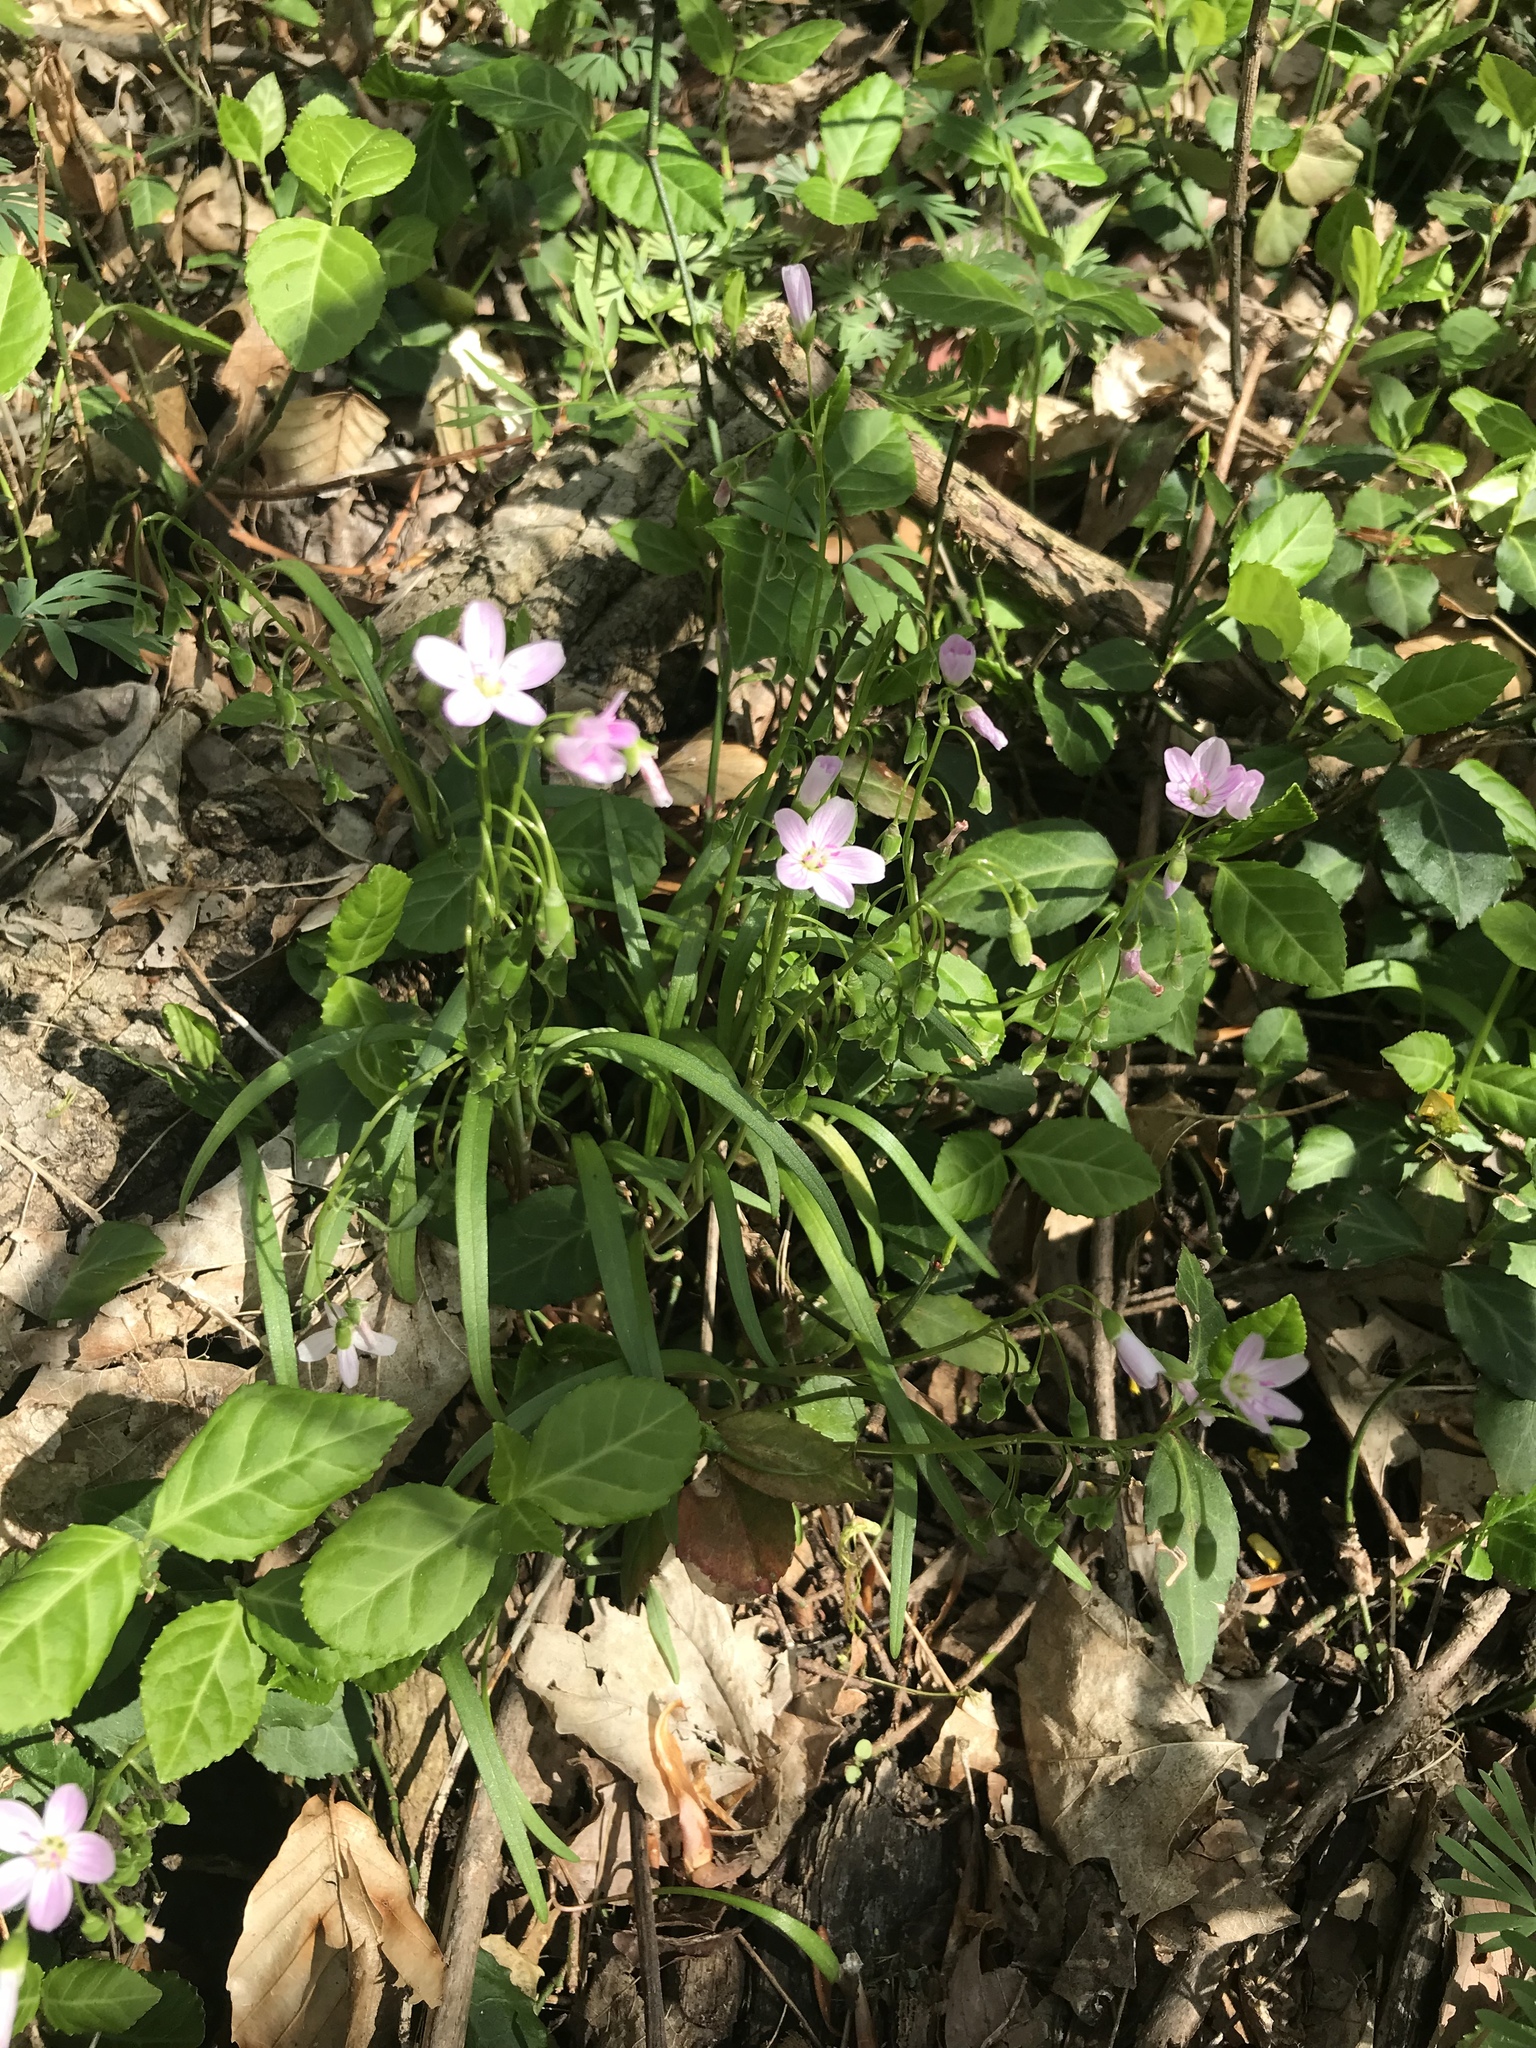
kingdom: Plantae
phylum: Tracheophyta
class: Magnoliopsida
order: Caryophyllales
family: Montiaceae
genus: Claytonia
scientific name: Claytonia virginica
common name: Virginia springbeauty
